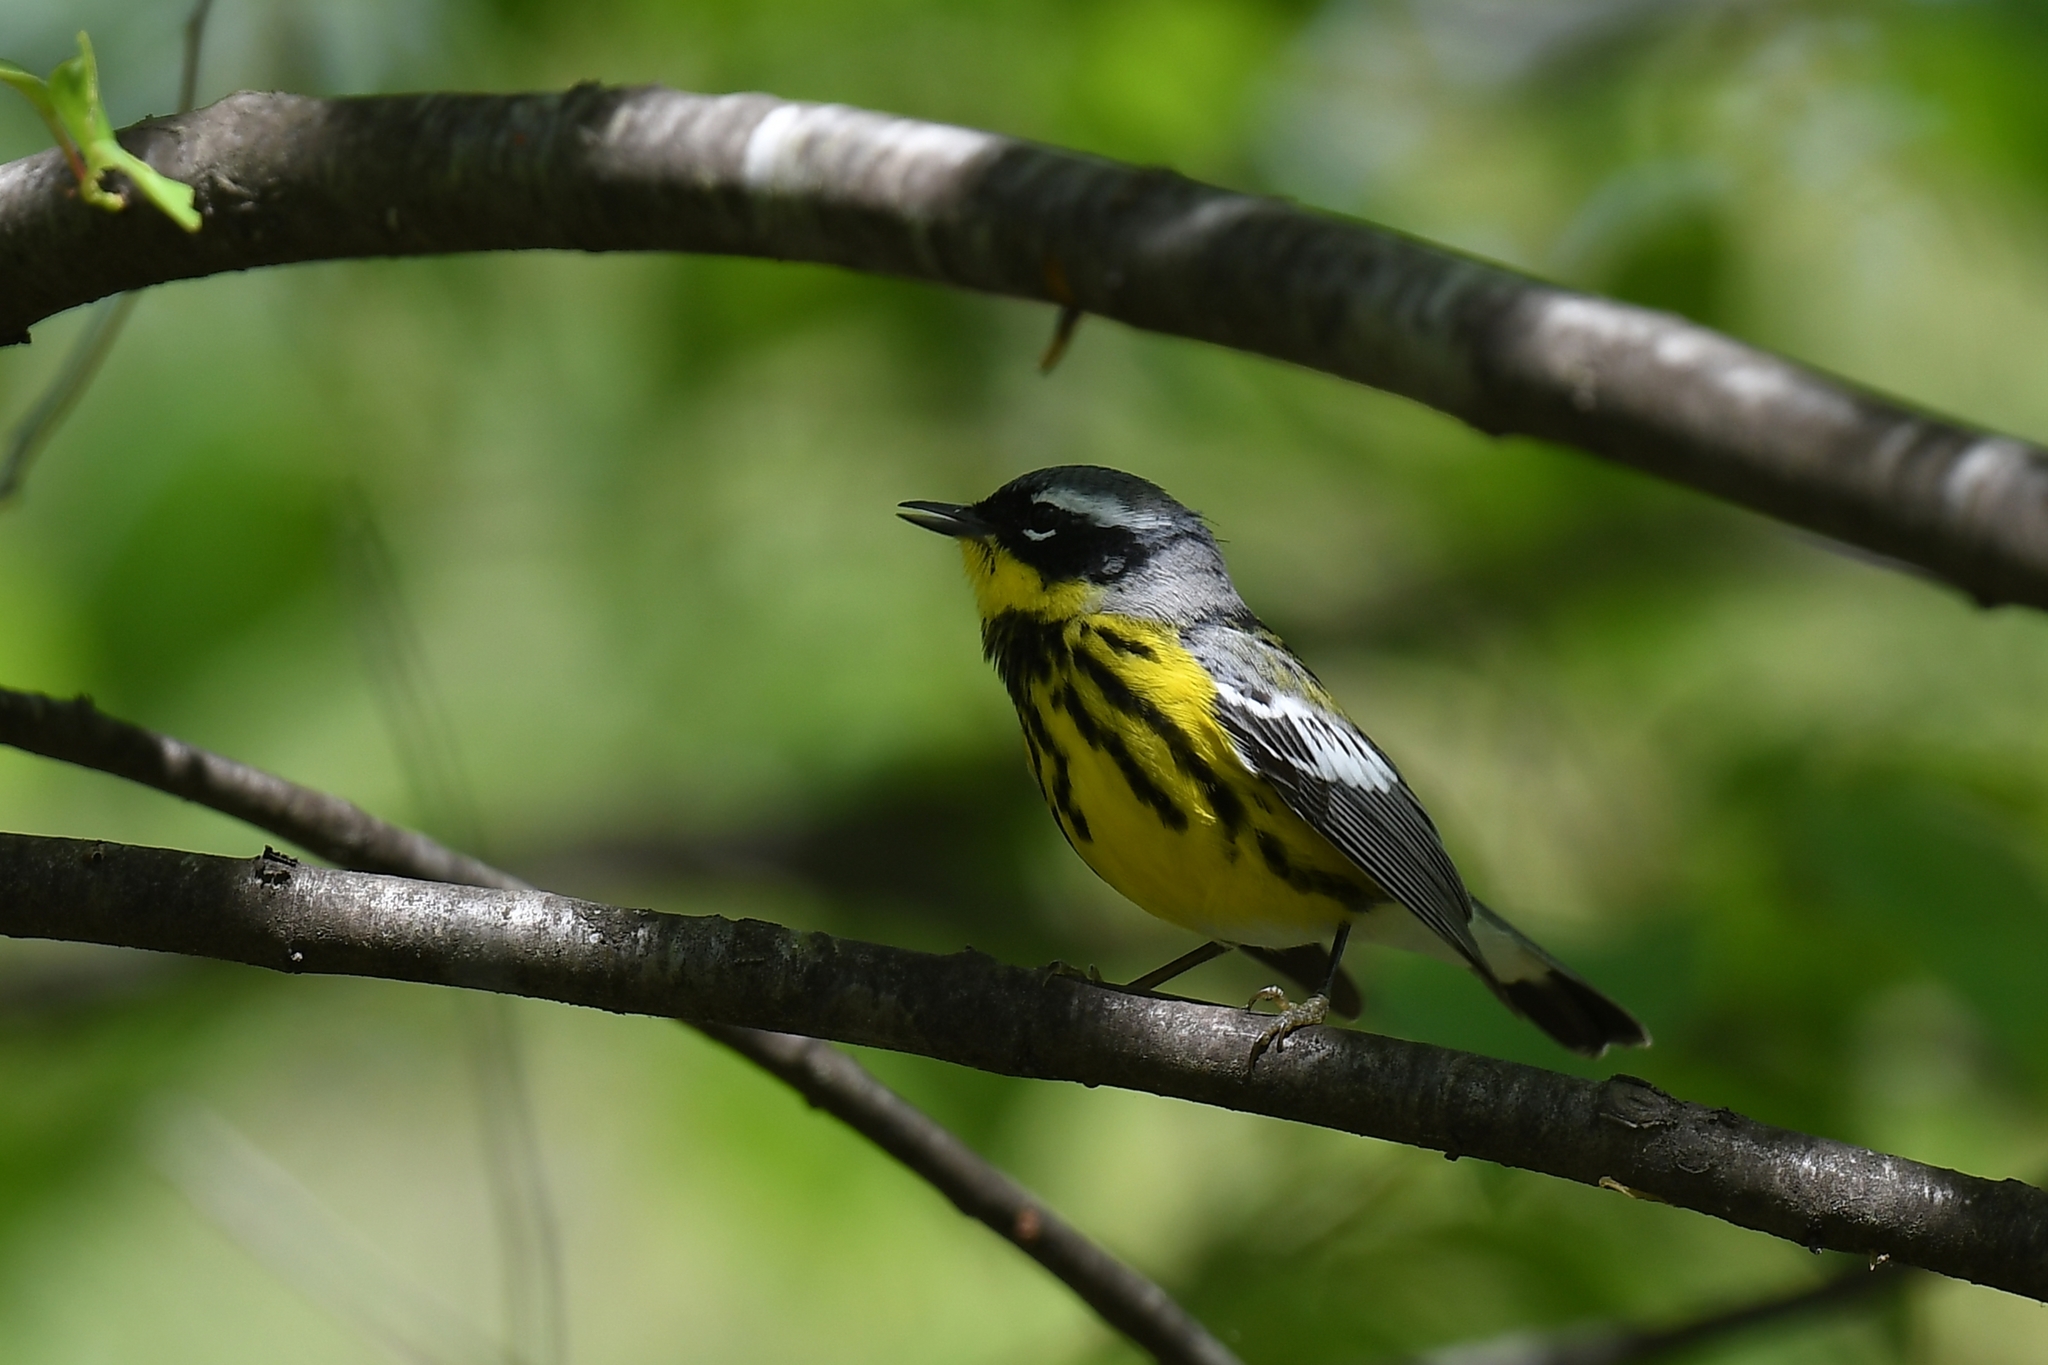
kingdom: Animalia
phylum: Chordata
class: Aves
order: Passeriformes
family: Parulidae
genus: Setophaga
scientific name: Setophaga magnolia
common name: Magnolia warbler
